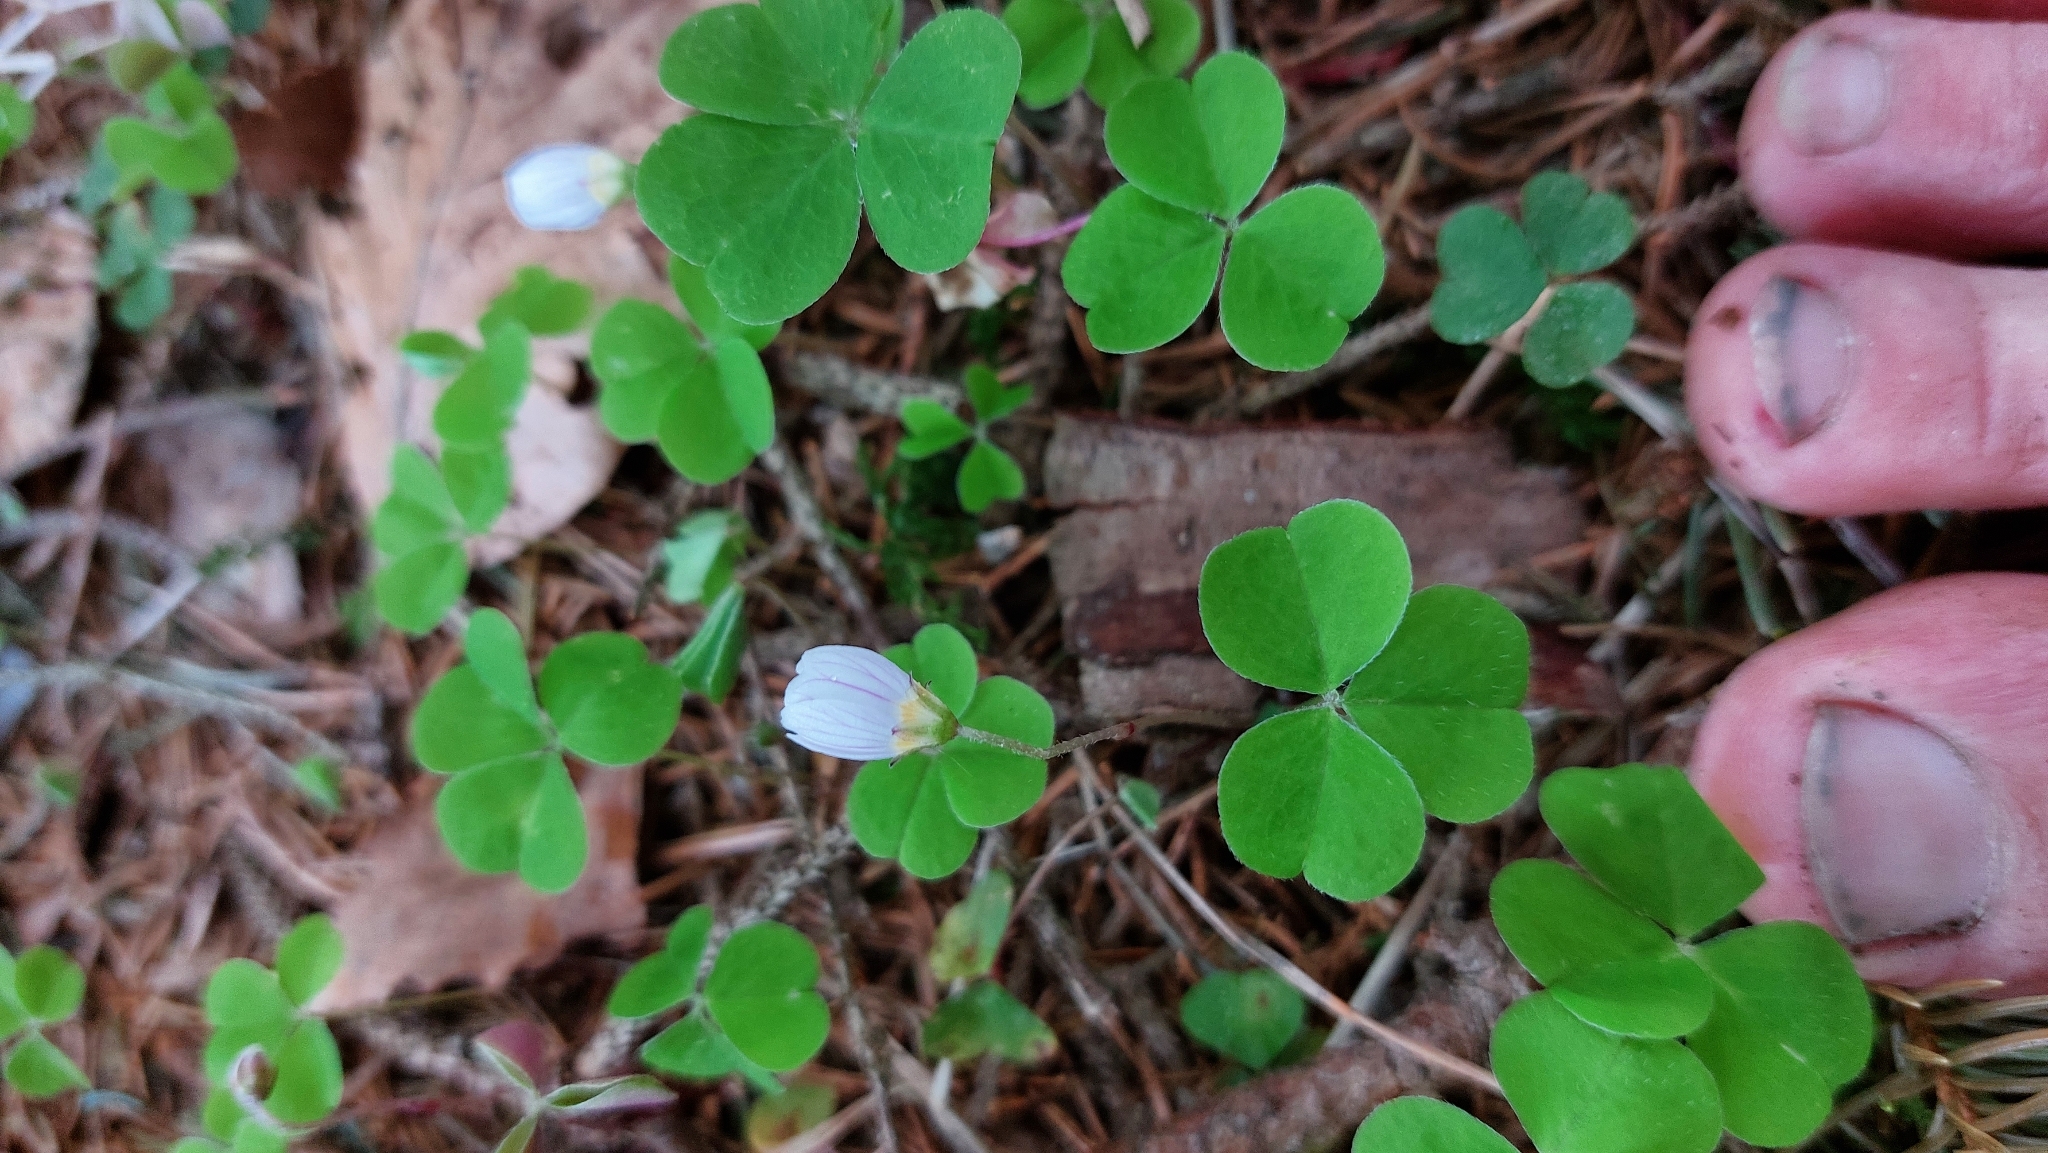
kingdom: Plantae
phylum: Tracheophyta
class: Magnoliopsida
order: Oxalidales
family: Oxalidaceae
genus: Oxalis
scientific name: Oxalis acetosella
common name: Wood-sorrel
